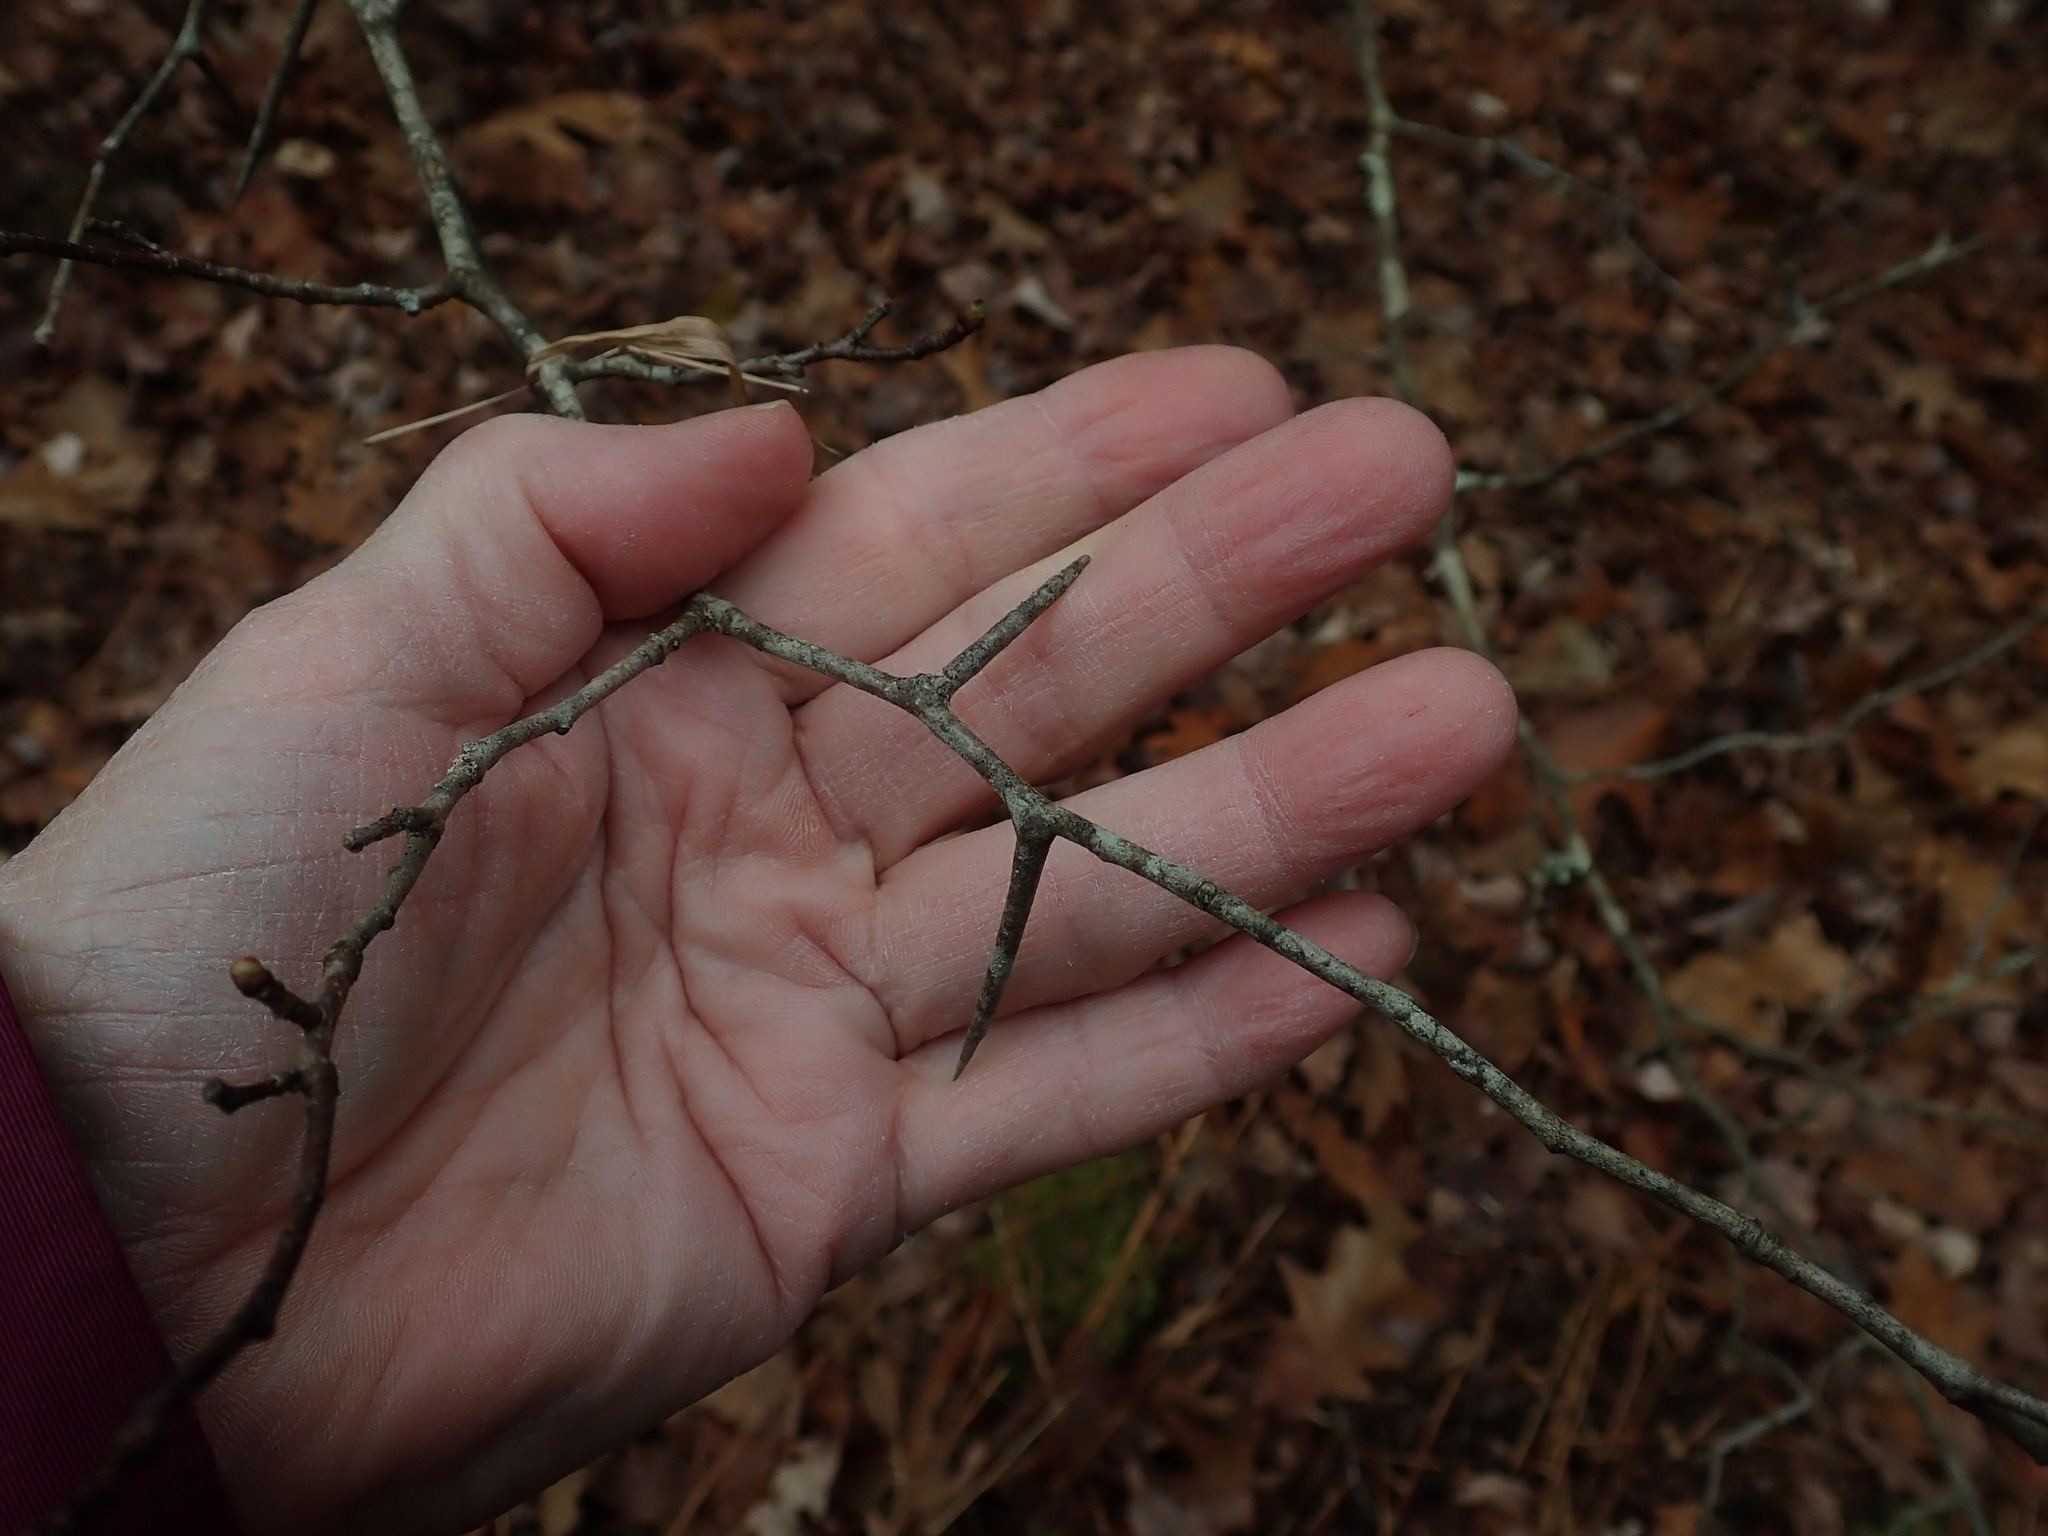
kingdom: Plantae
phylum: Tracheophyta
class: Magnoliopsida
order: Rosales
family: Rosaceae
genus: Crataegus
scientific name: Crataegus
